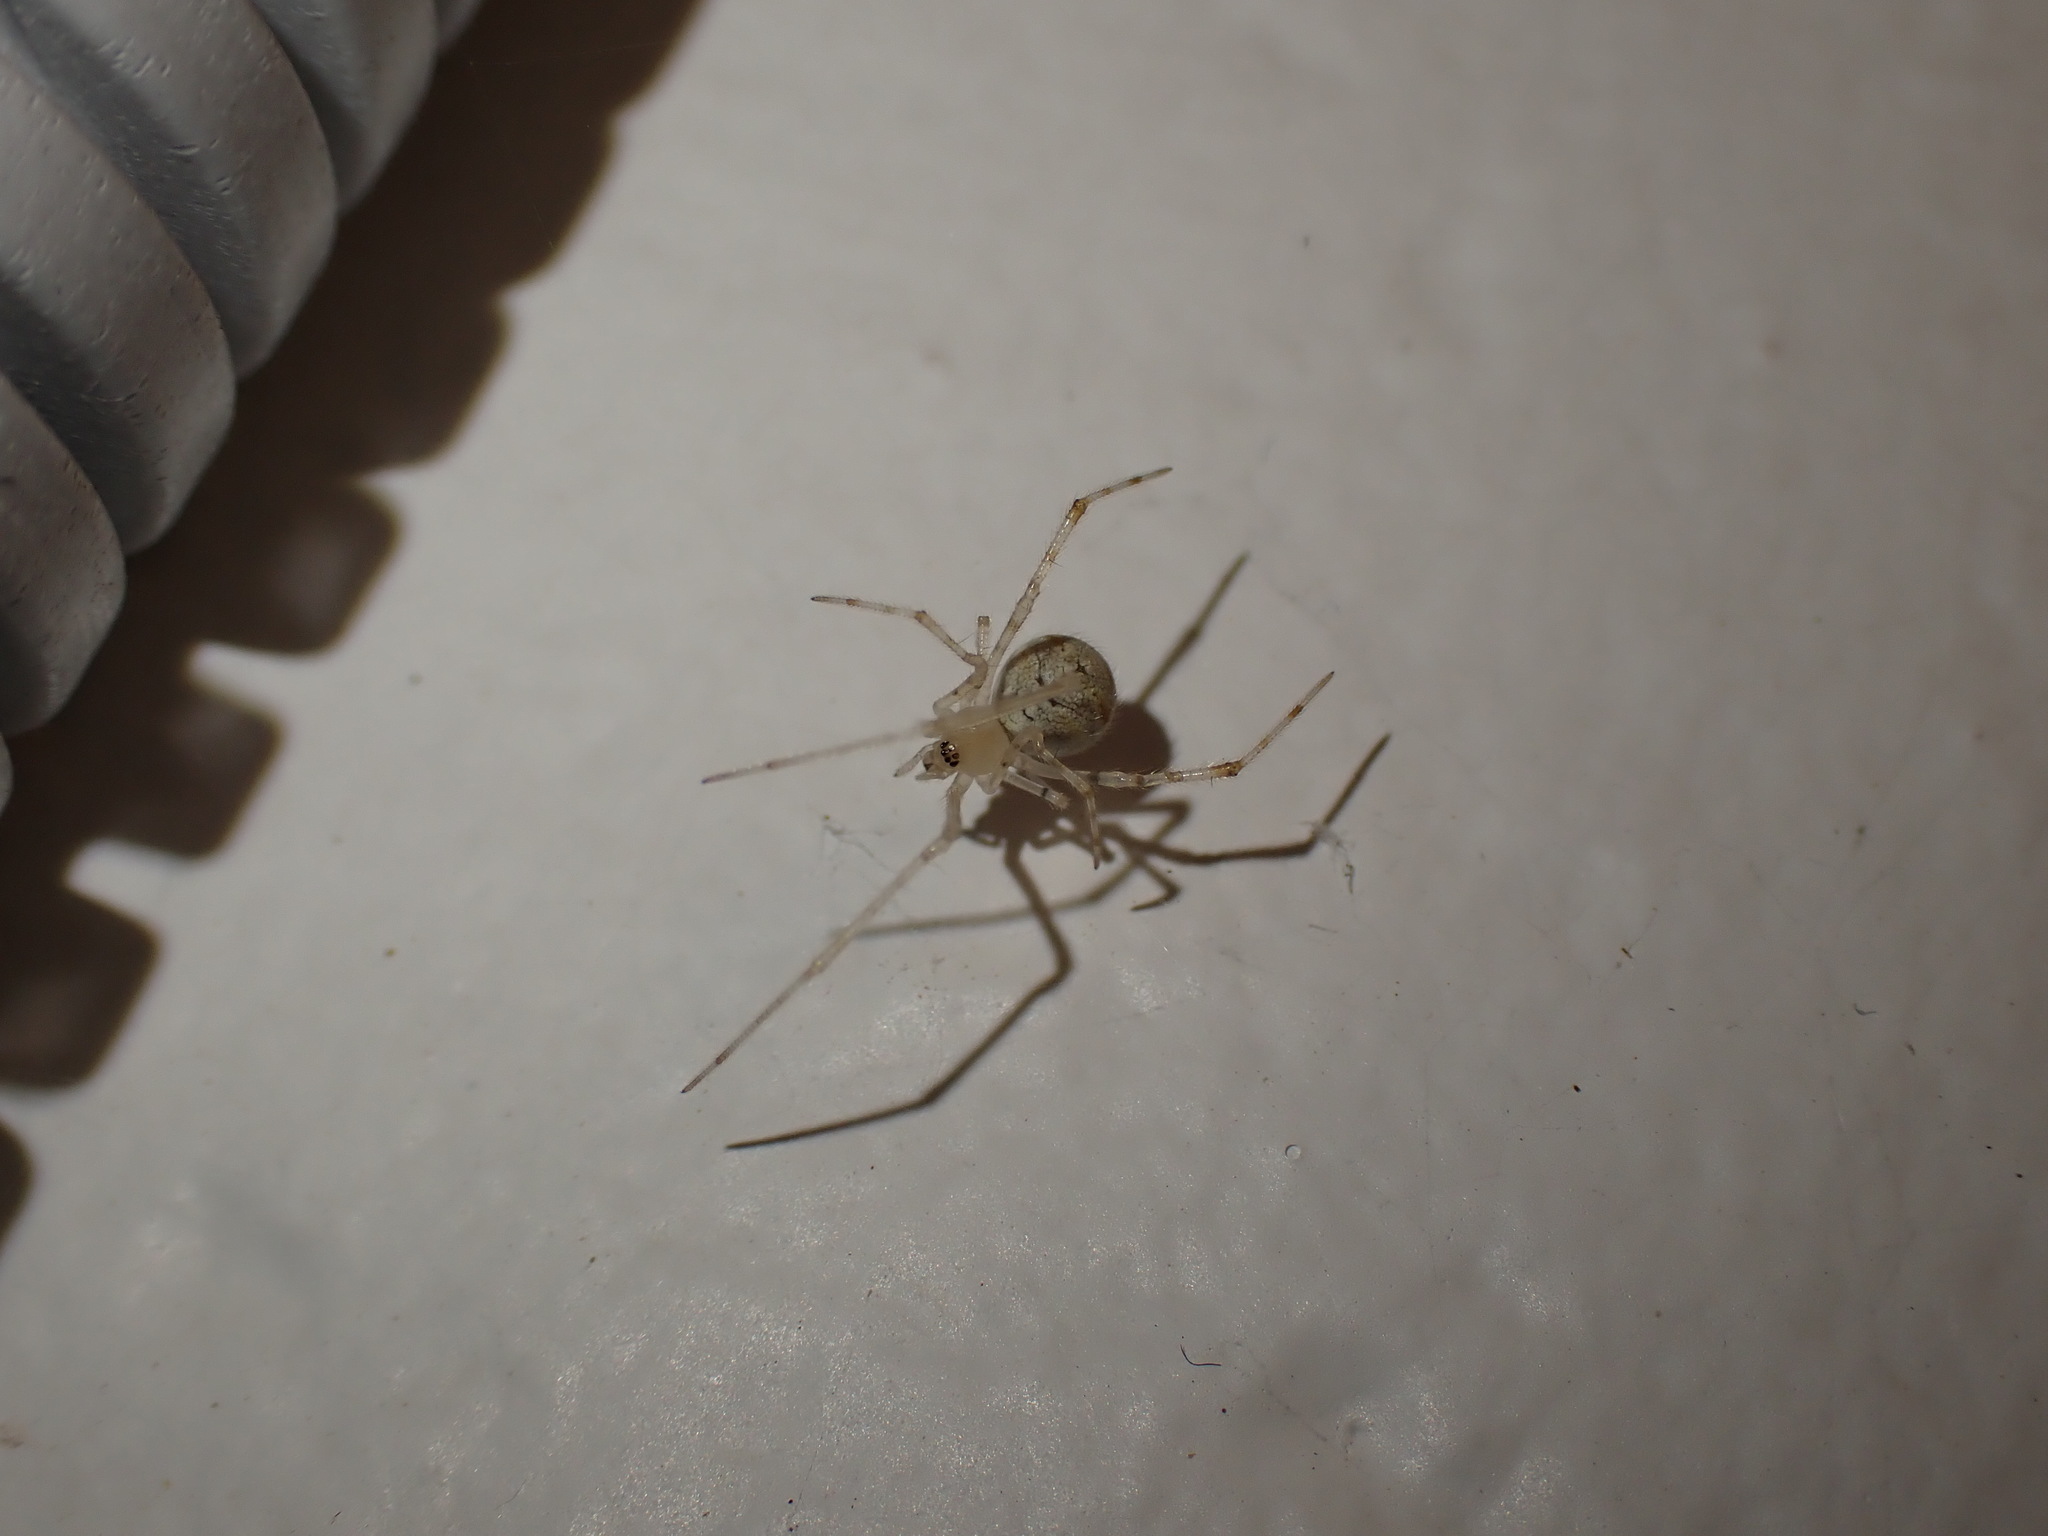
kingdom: Animalia
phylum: Arthropoda
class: Arachnida
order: Araneae
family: Theridiidae
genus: Cryptachaea
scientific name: Cryptachaea gigantipes
